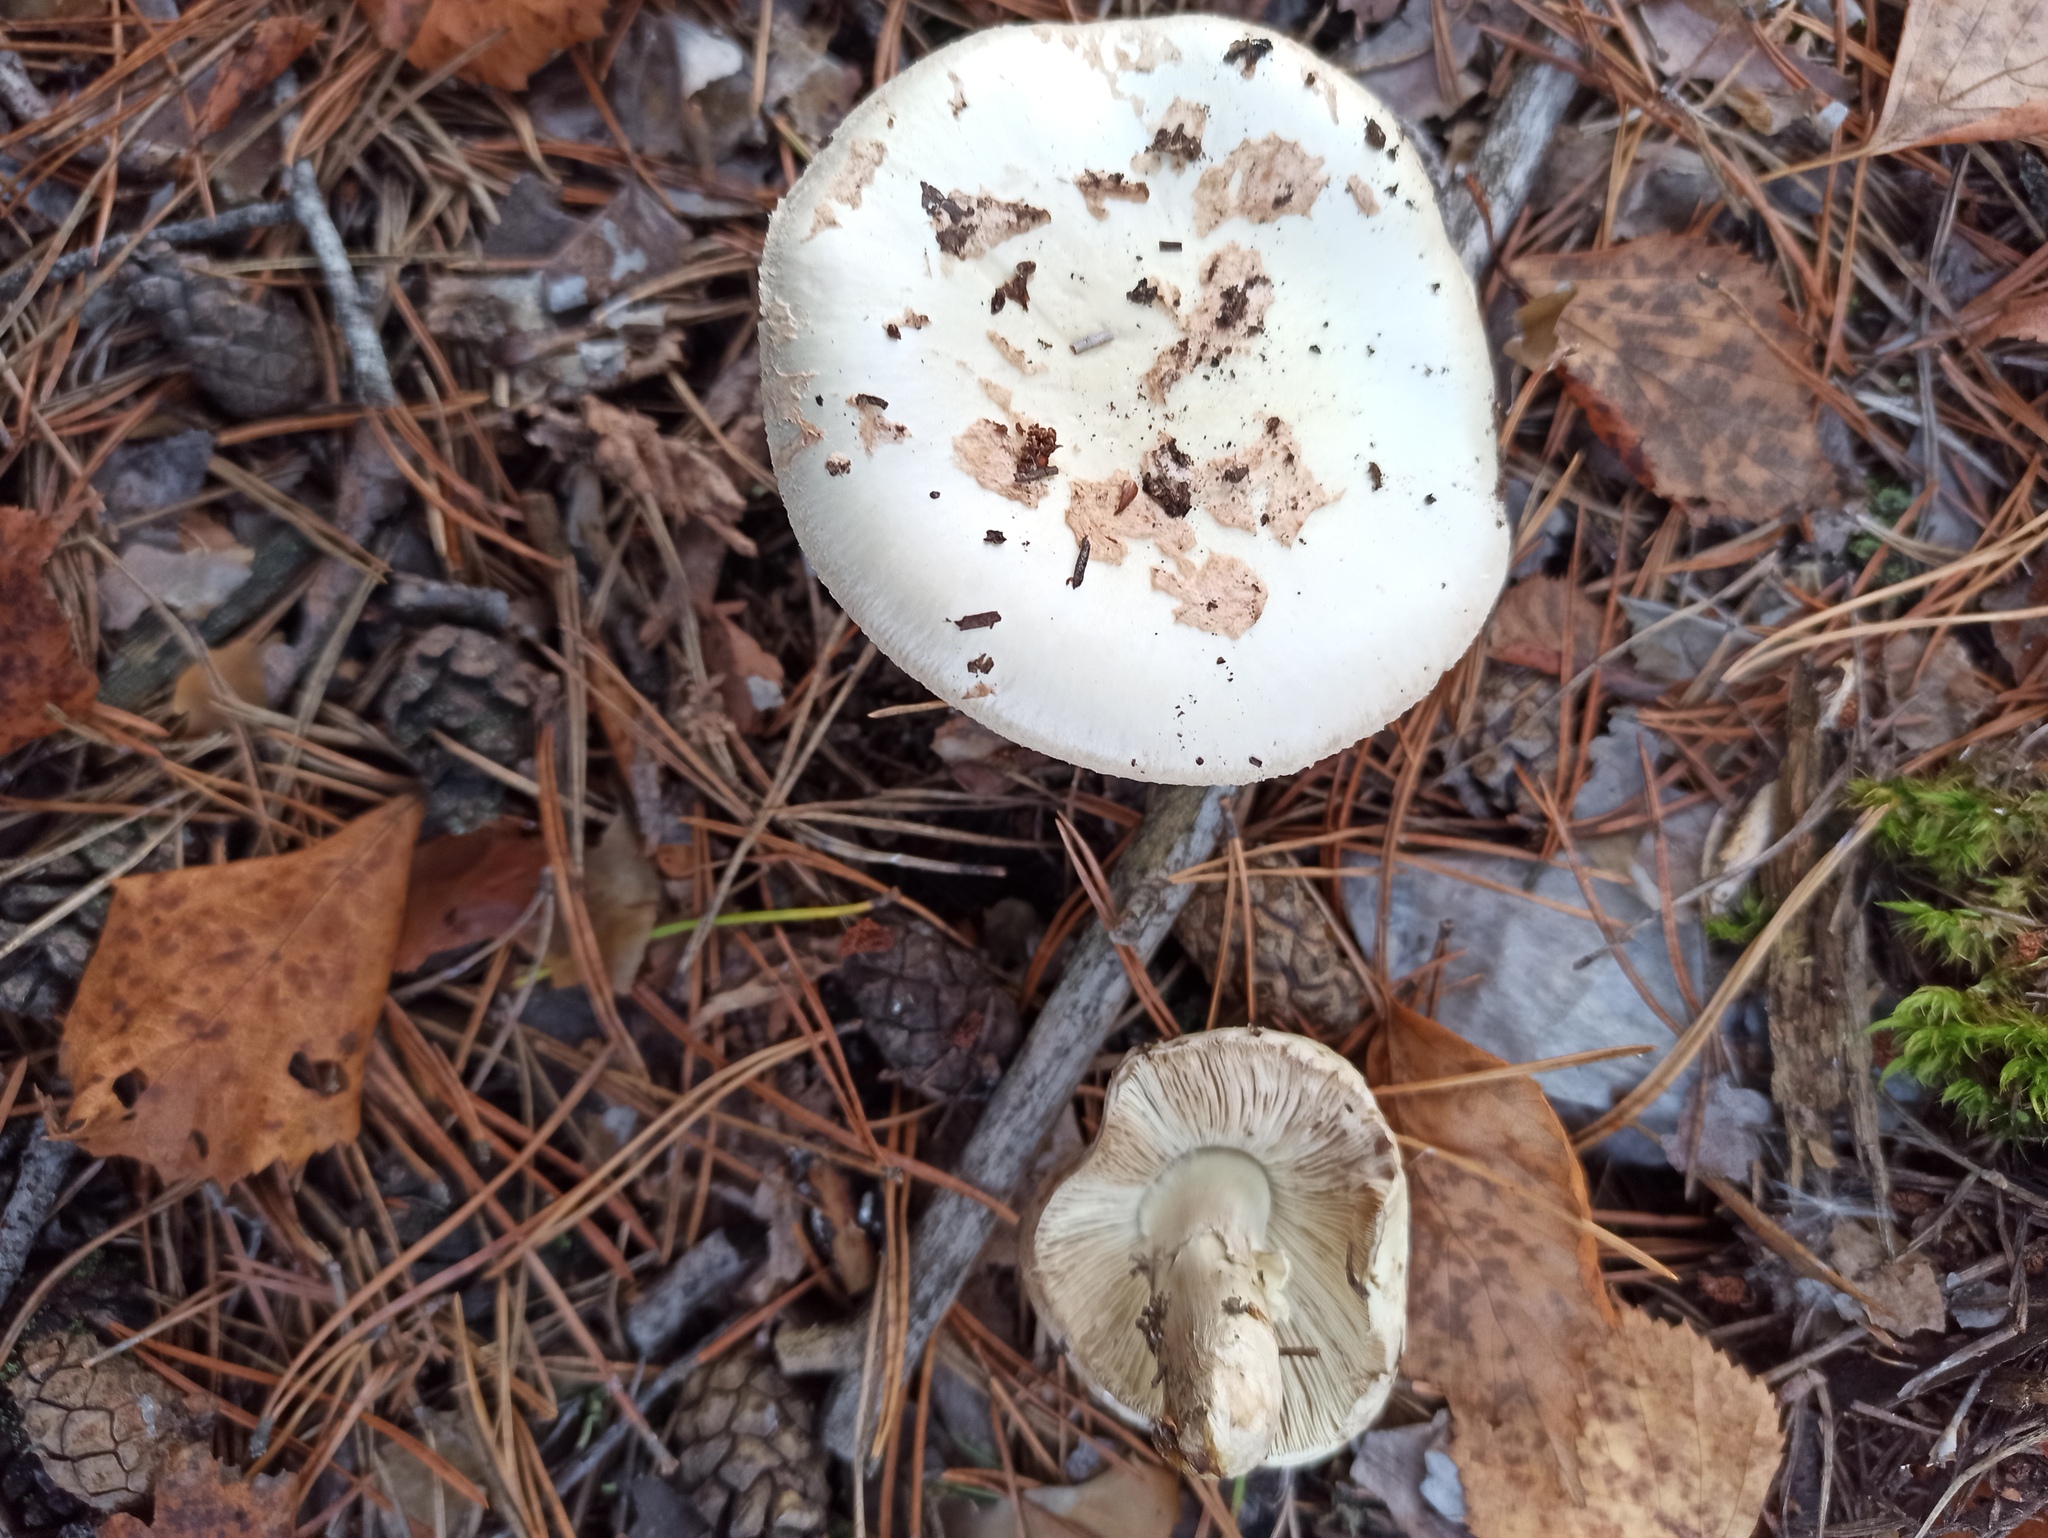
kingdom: Fungi
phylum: Basidiomycota
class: Agaricomycetes
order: Agaricales
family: Amanitaceae
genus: Amanita
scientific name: Amanita citrina
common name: False death-cap
